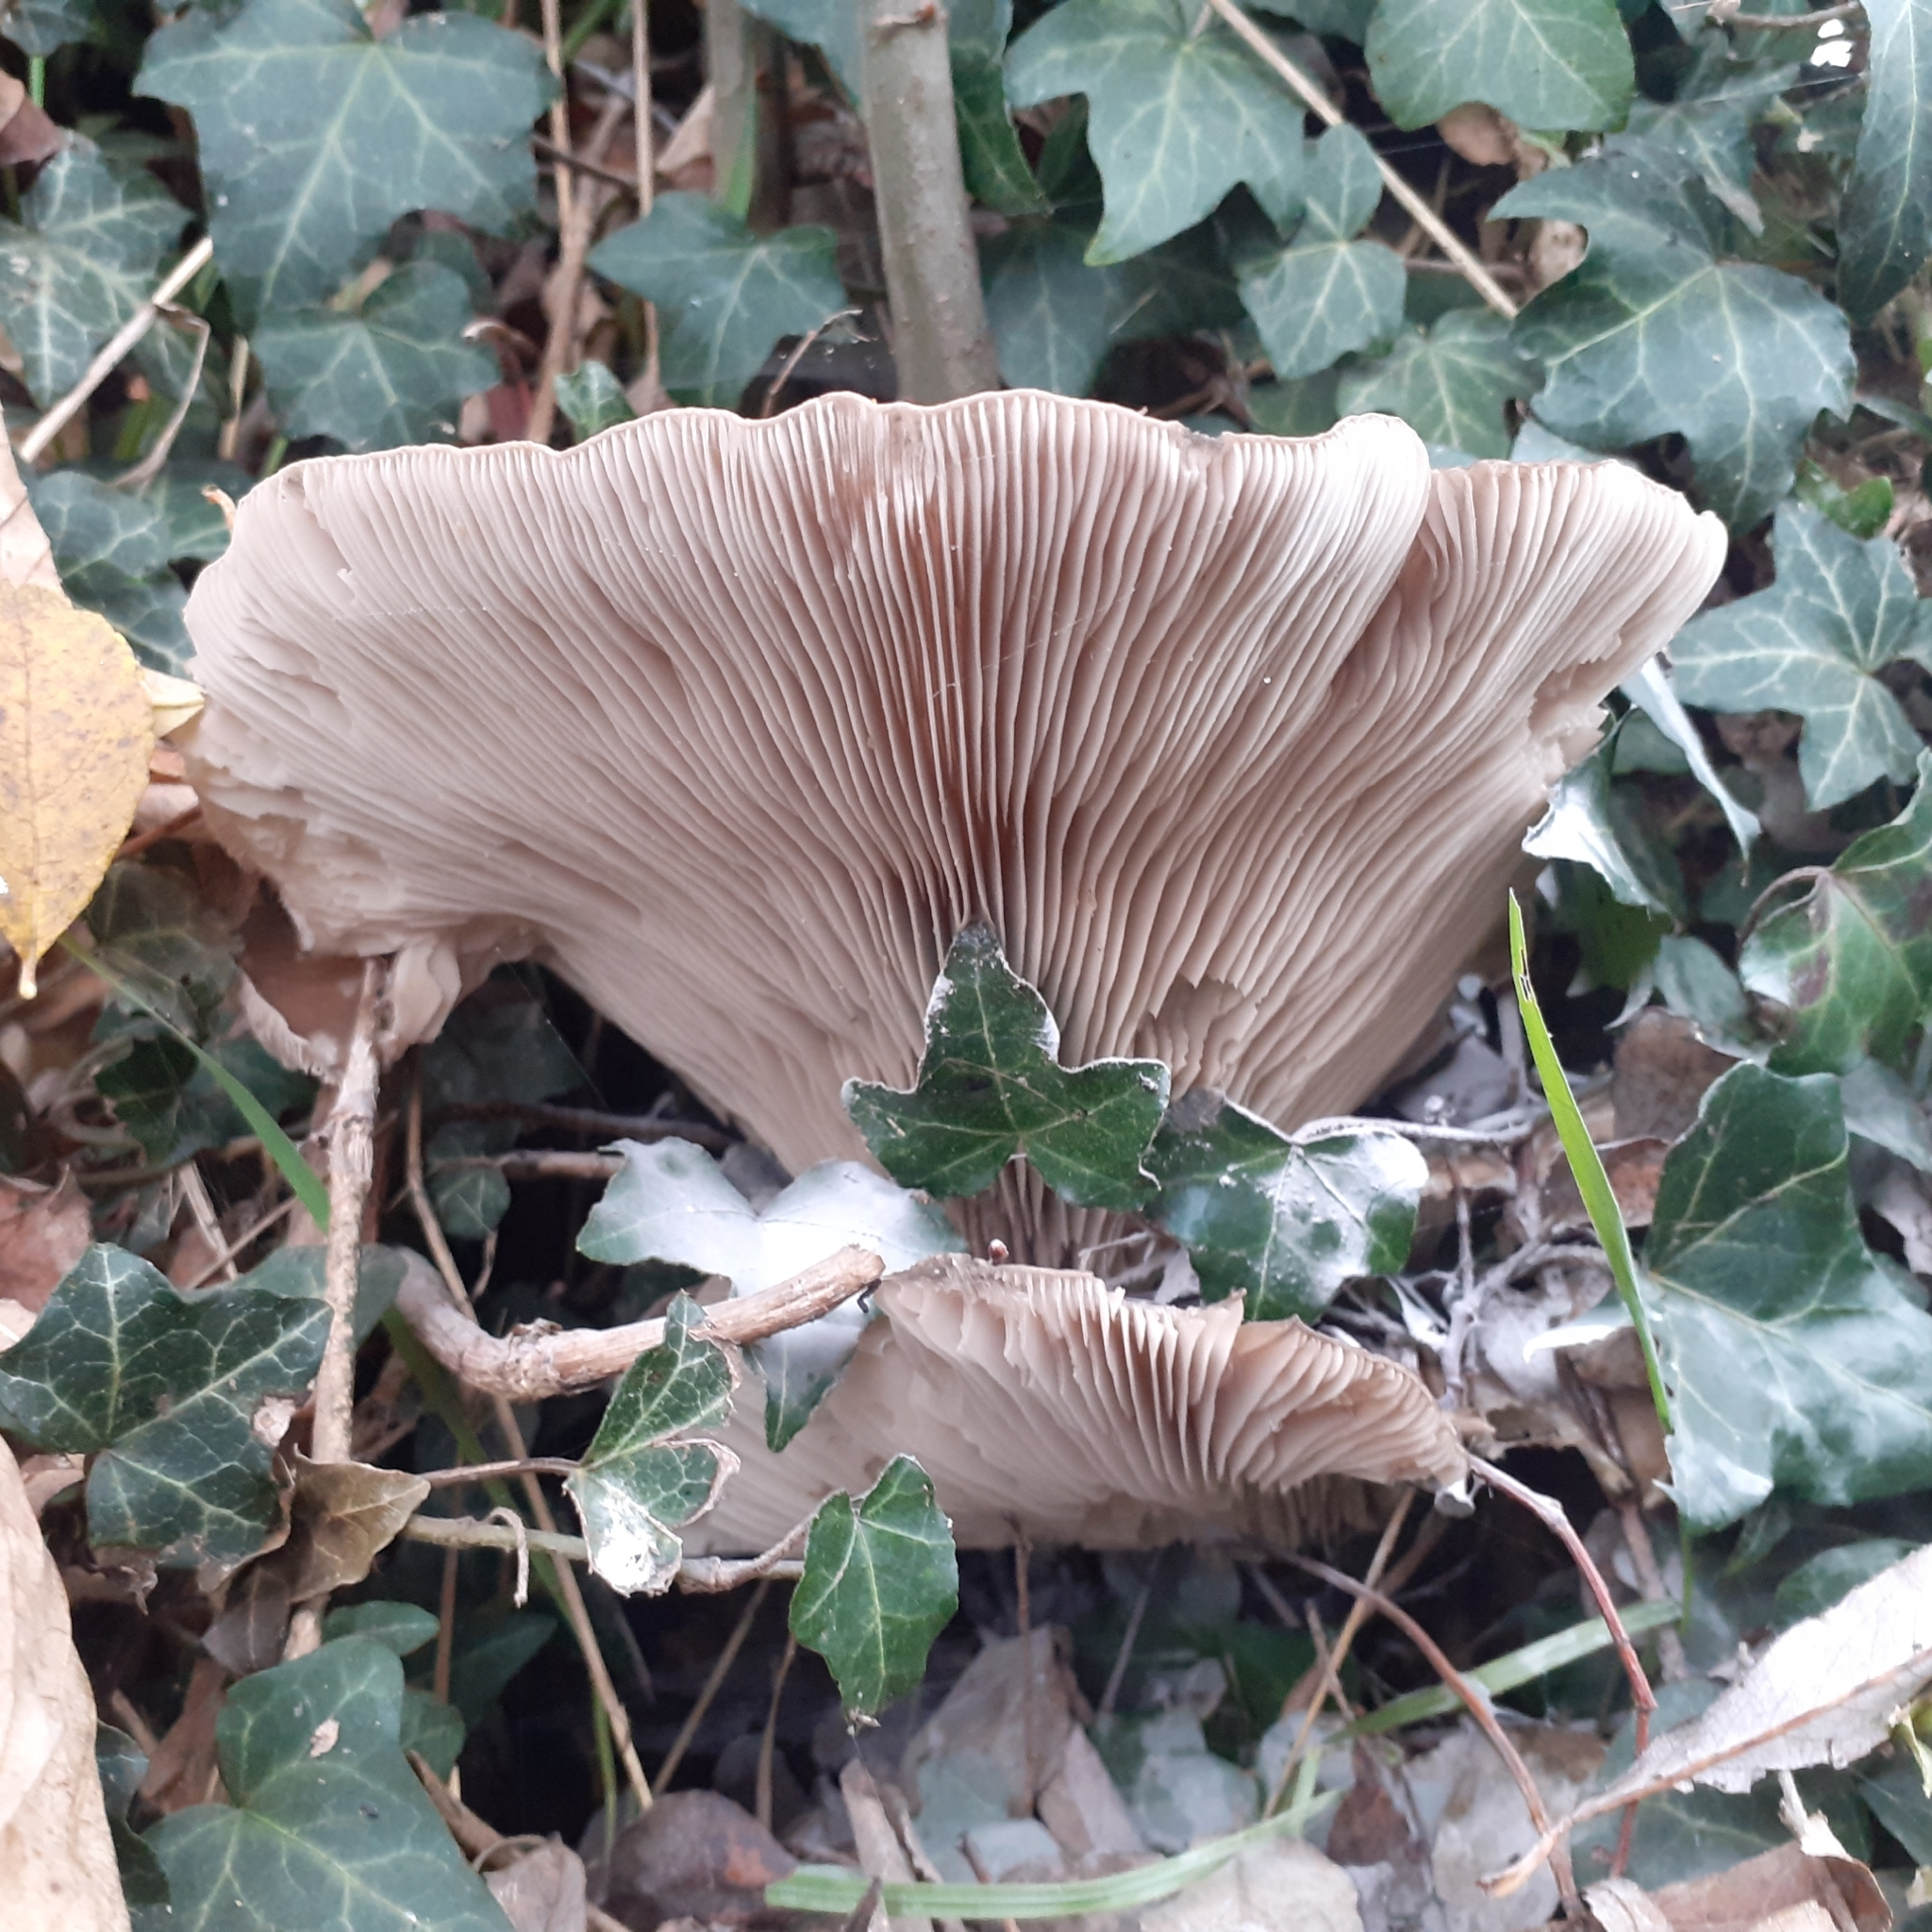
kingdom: Fungi
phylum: Basidiomycota
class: Agaricomycetes
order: Agaricales
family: Pleurotaceae
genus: Pleurotus
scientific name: Pleurotus ostreatus
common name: Oyster mushroom
